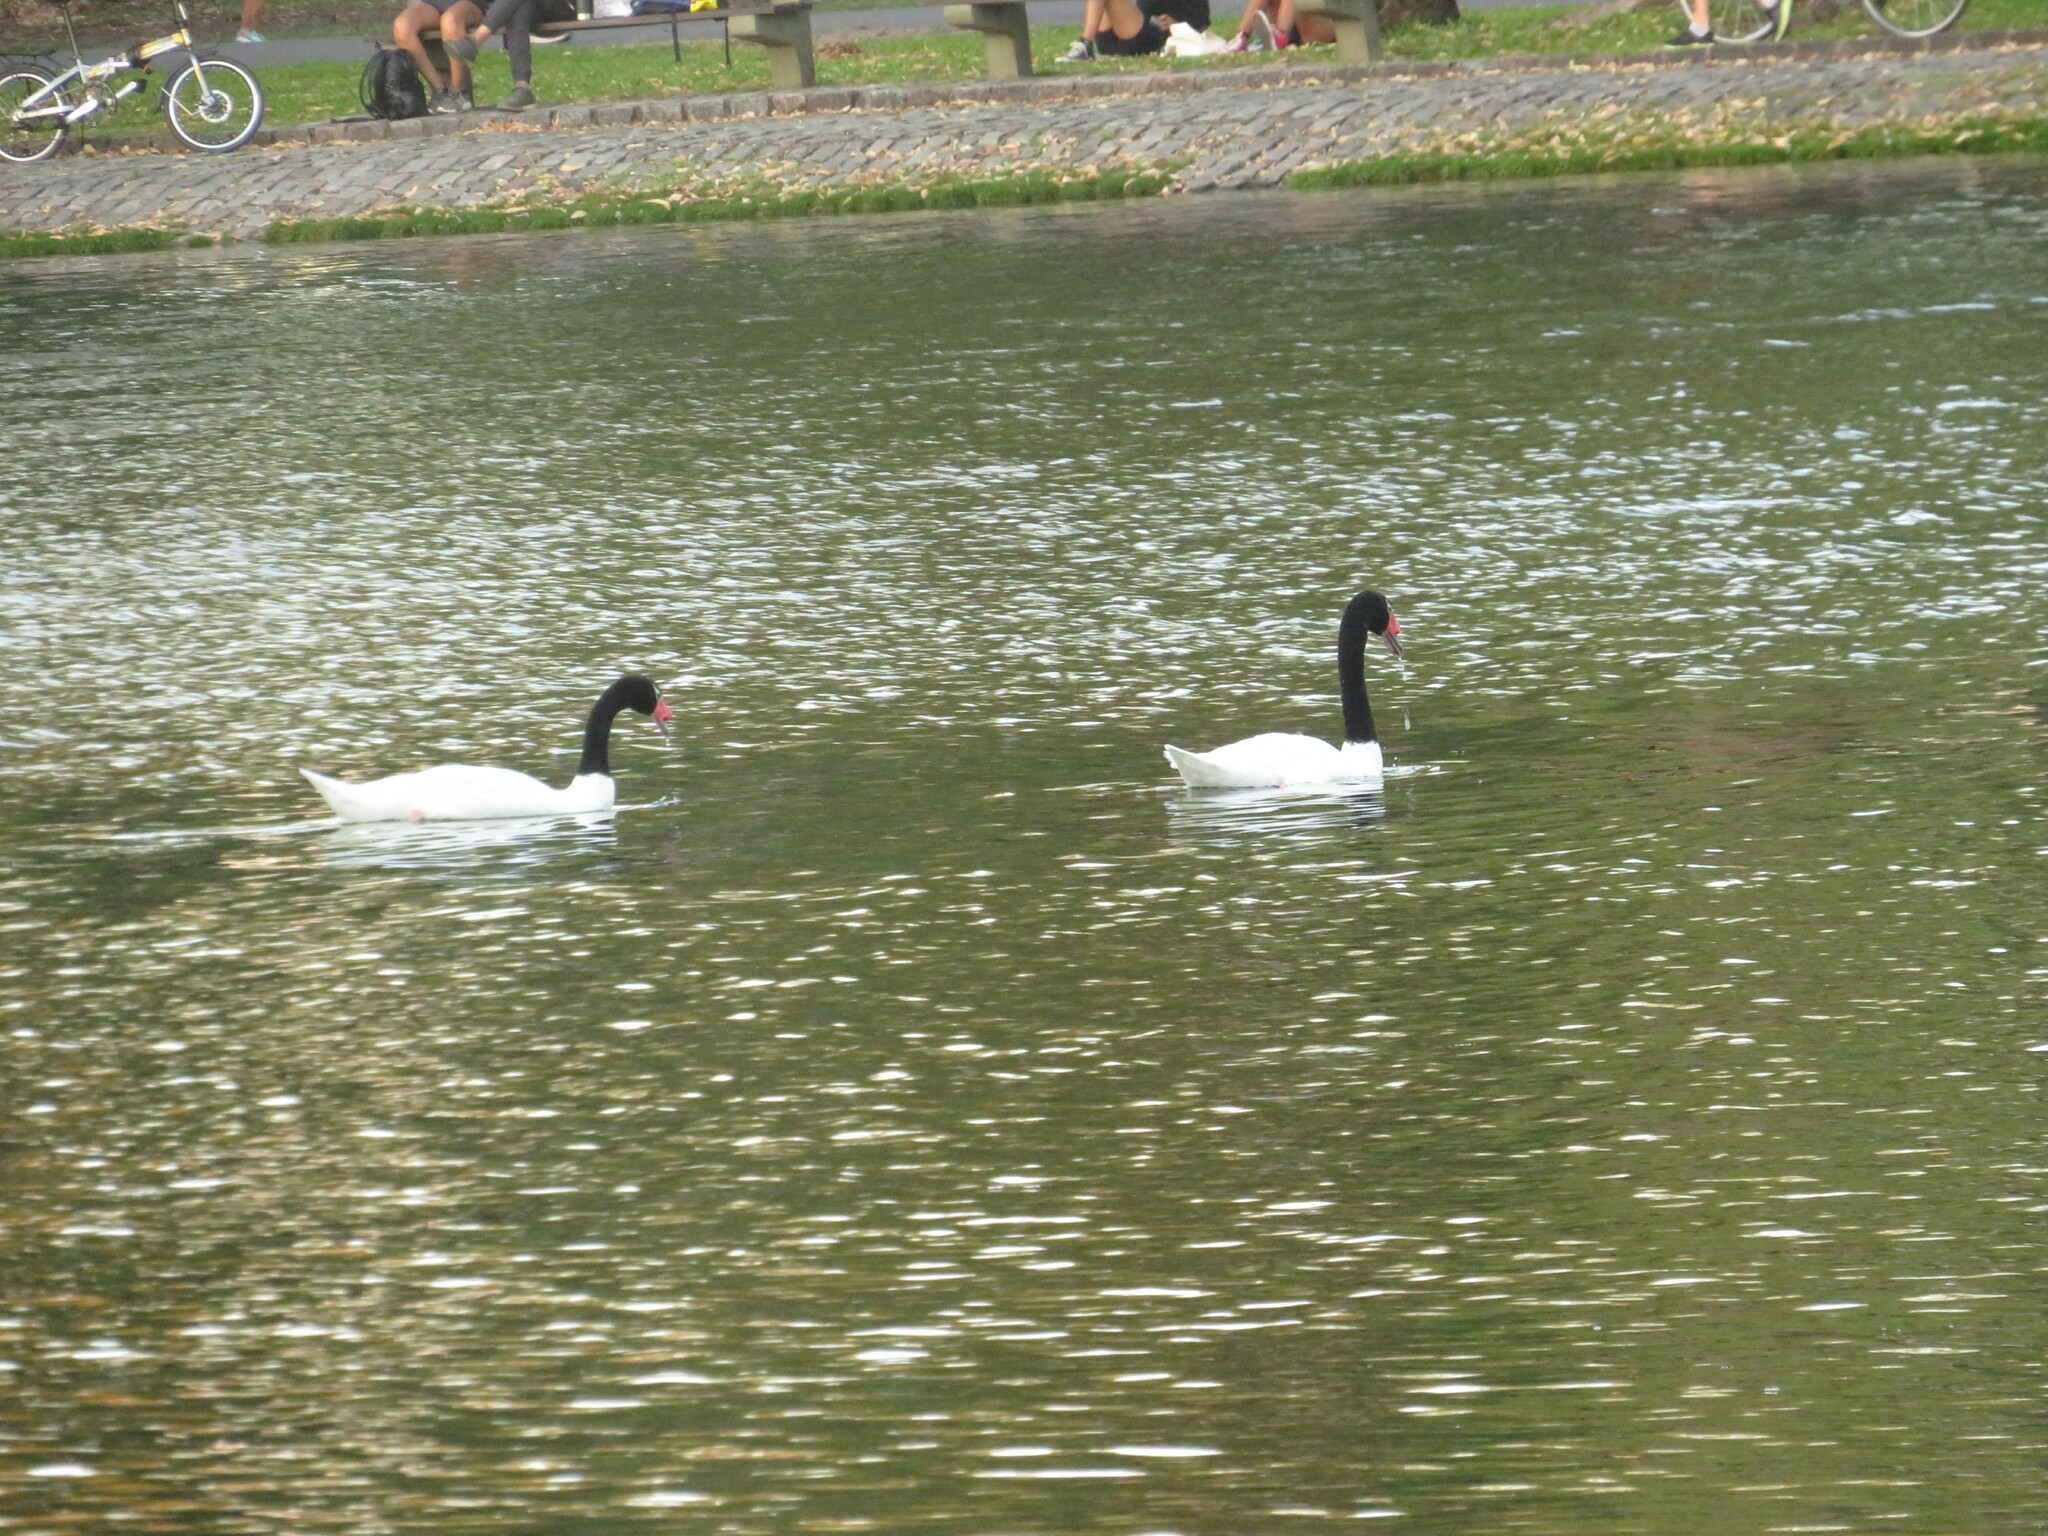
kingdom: Animalia
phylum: Chordata
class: Aves
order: Anseriformes
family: Anatidae
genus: Cygnus
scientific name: Cygnus melancoryphus
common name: Black-necked swan
